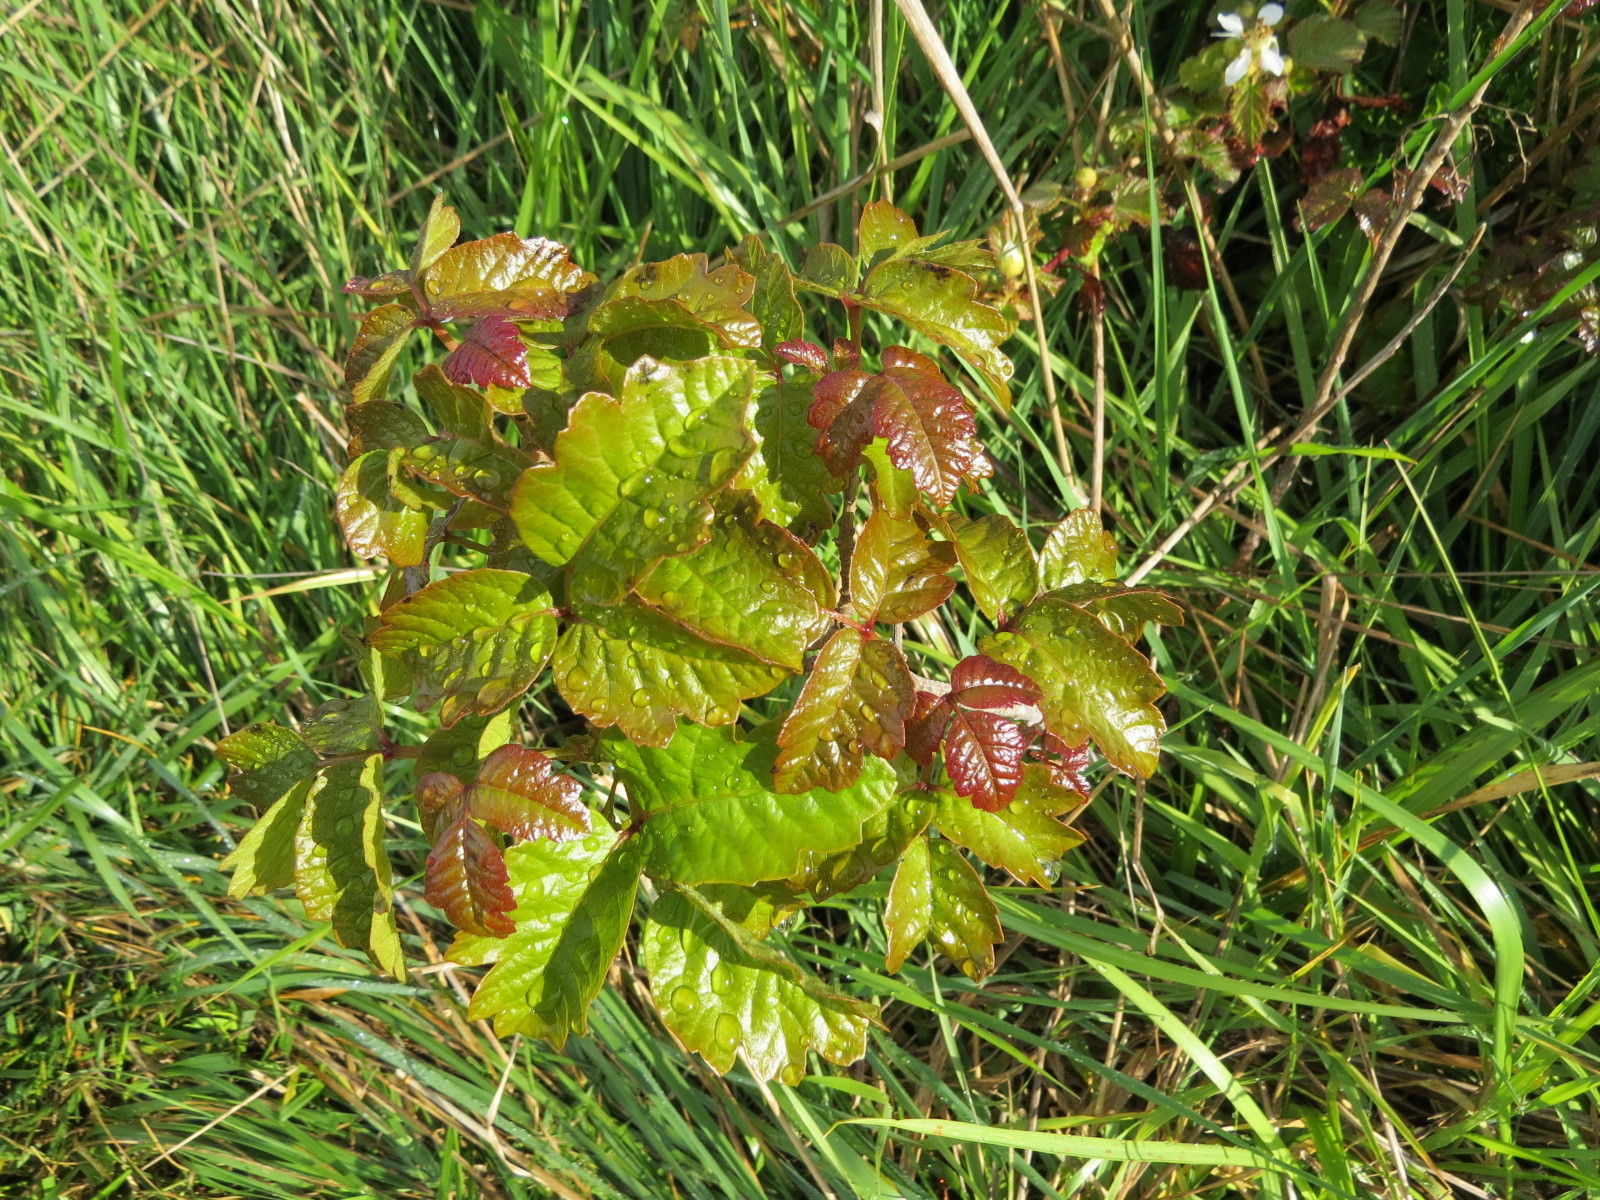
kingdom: Plantae
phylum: Tracheophyta
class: Magnoliopsida
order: Sapindales
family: Anacardiaceae
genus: Toxicodendron
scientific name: Toxicodendron diversilobum
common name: Pacific poison-oak
